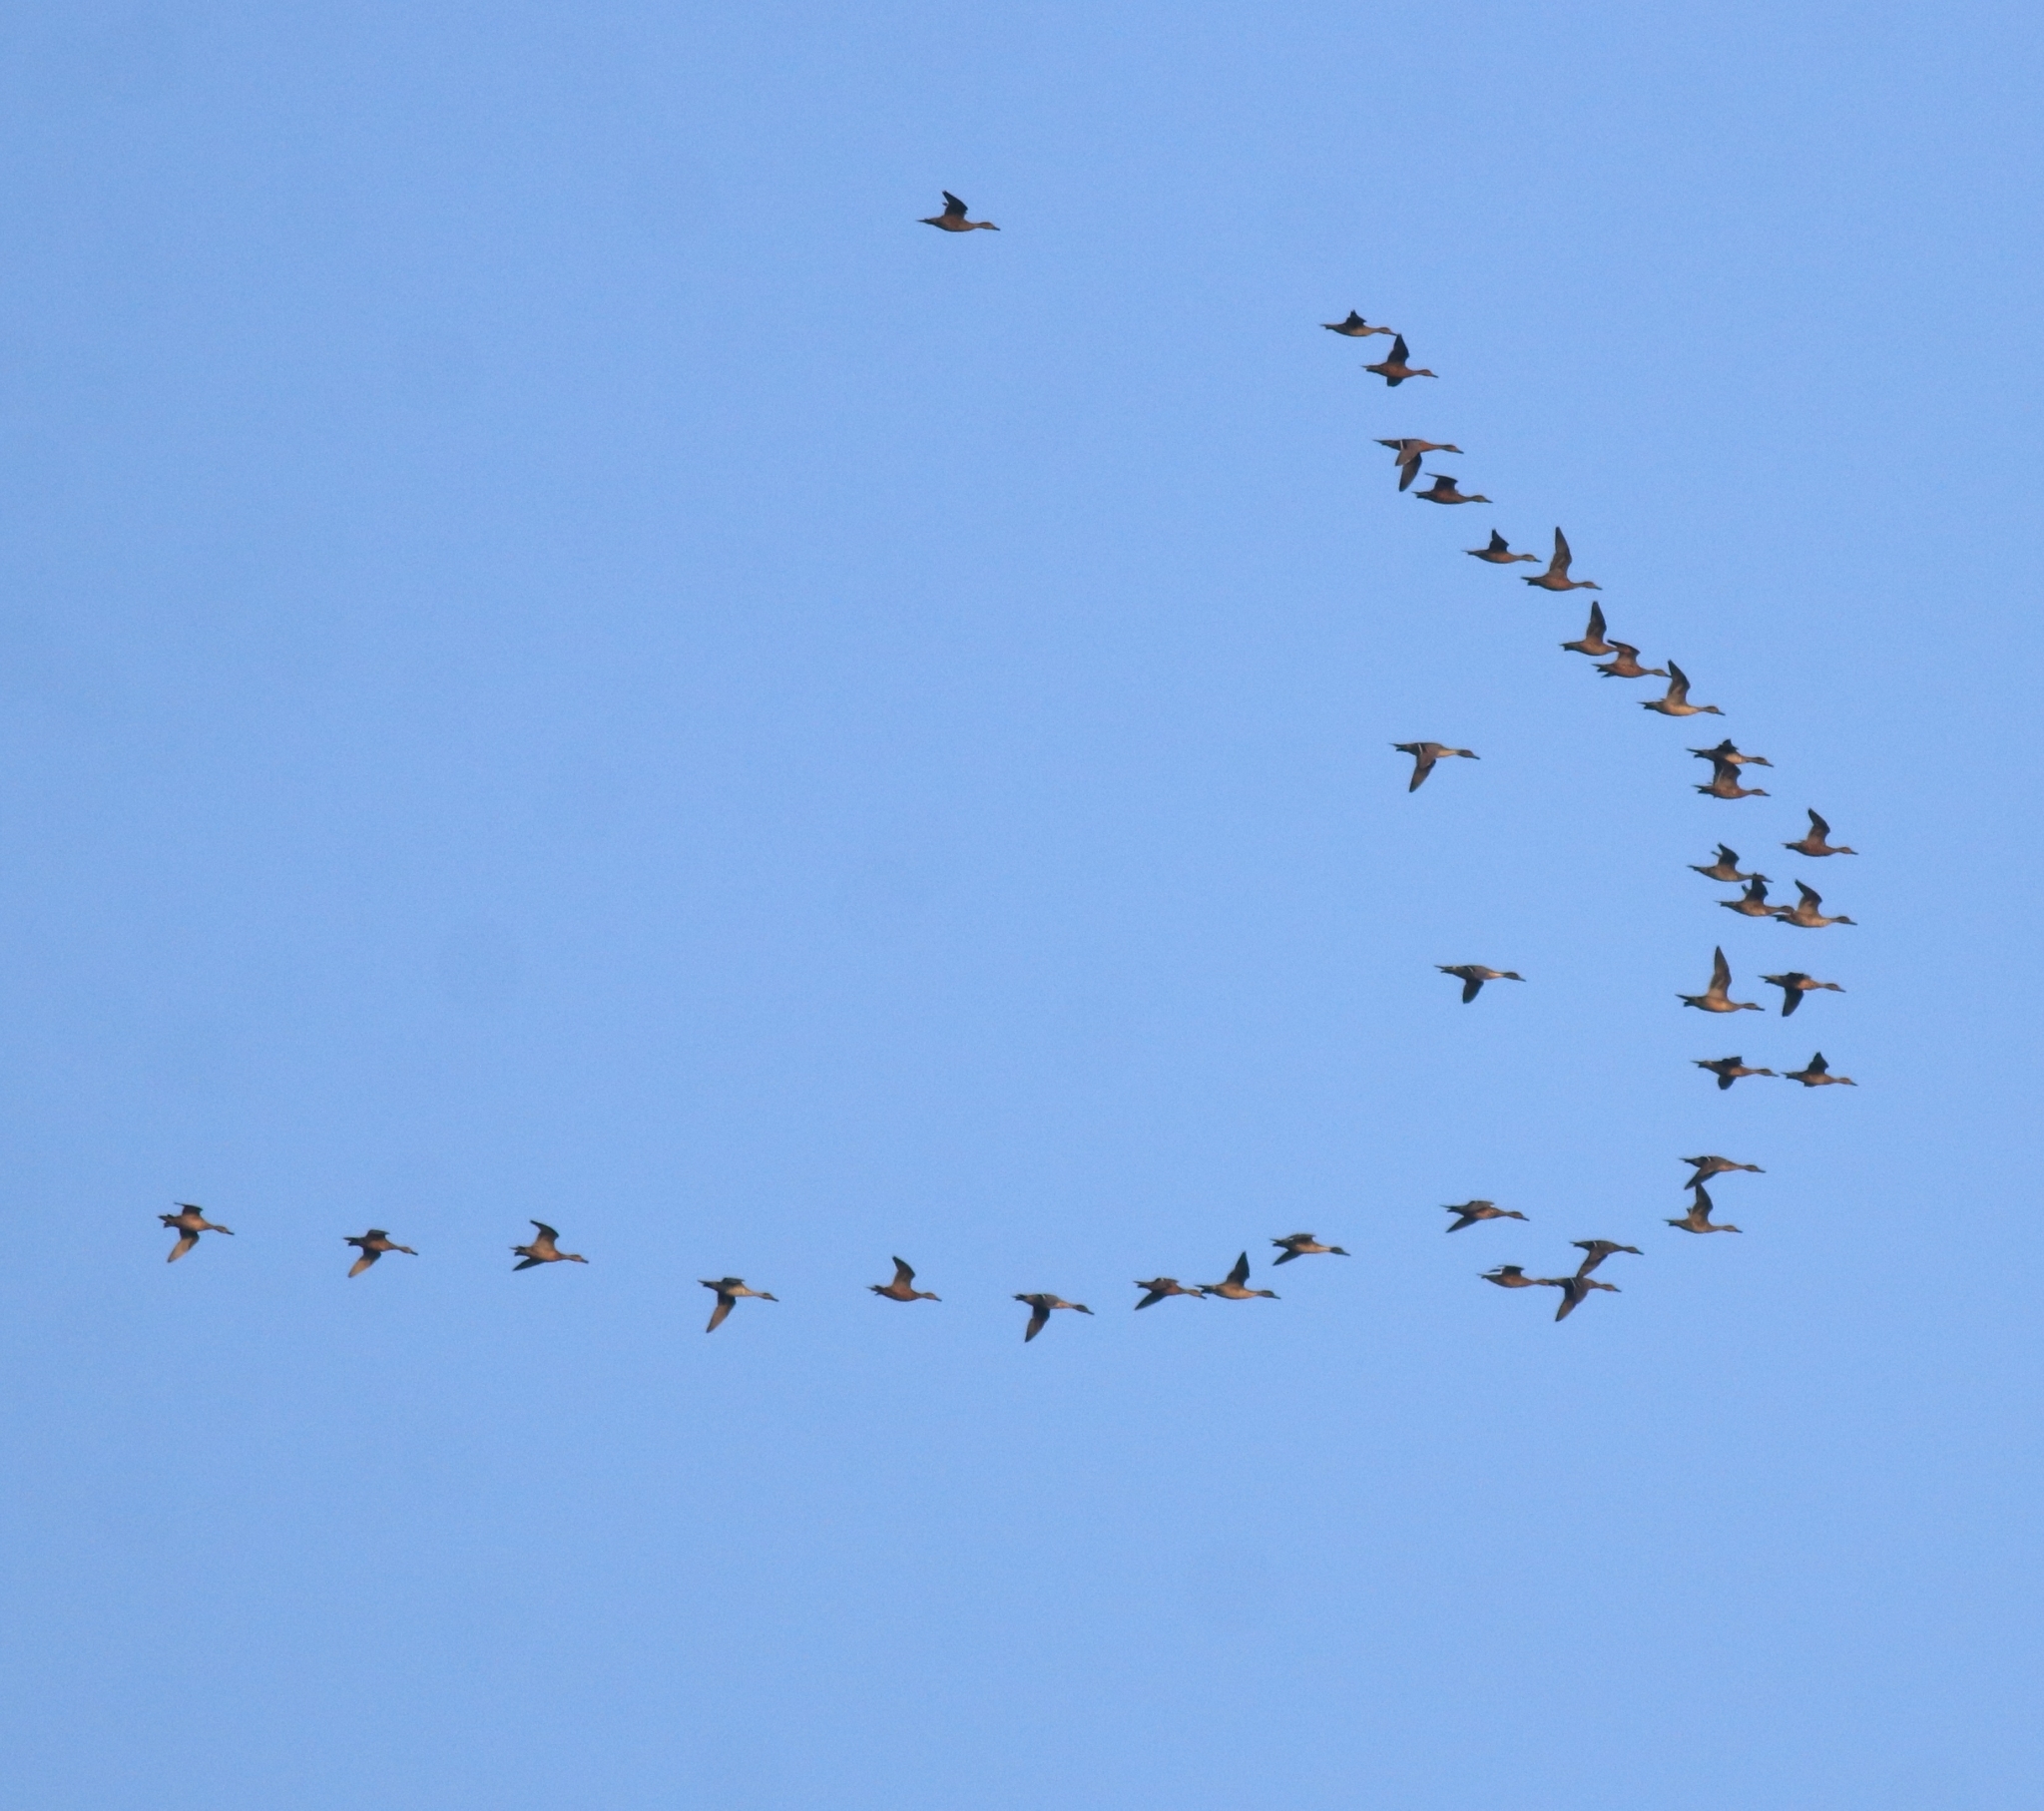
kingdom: Animalia
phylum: Chordata
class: Aves
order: Anseriformes
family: Anatidae
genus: Anas
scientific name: Anas acuta
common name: Northern pintail
